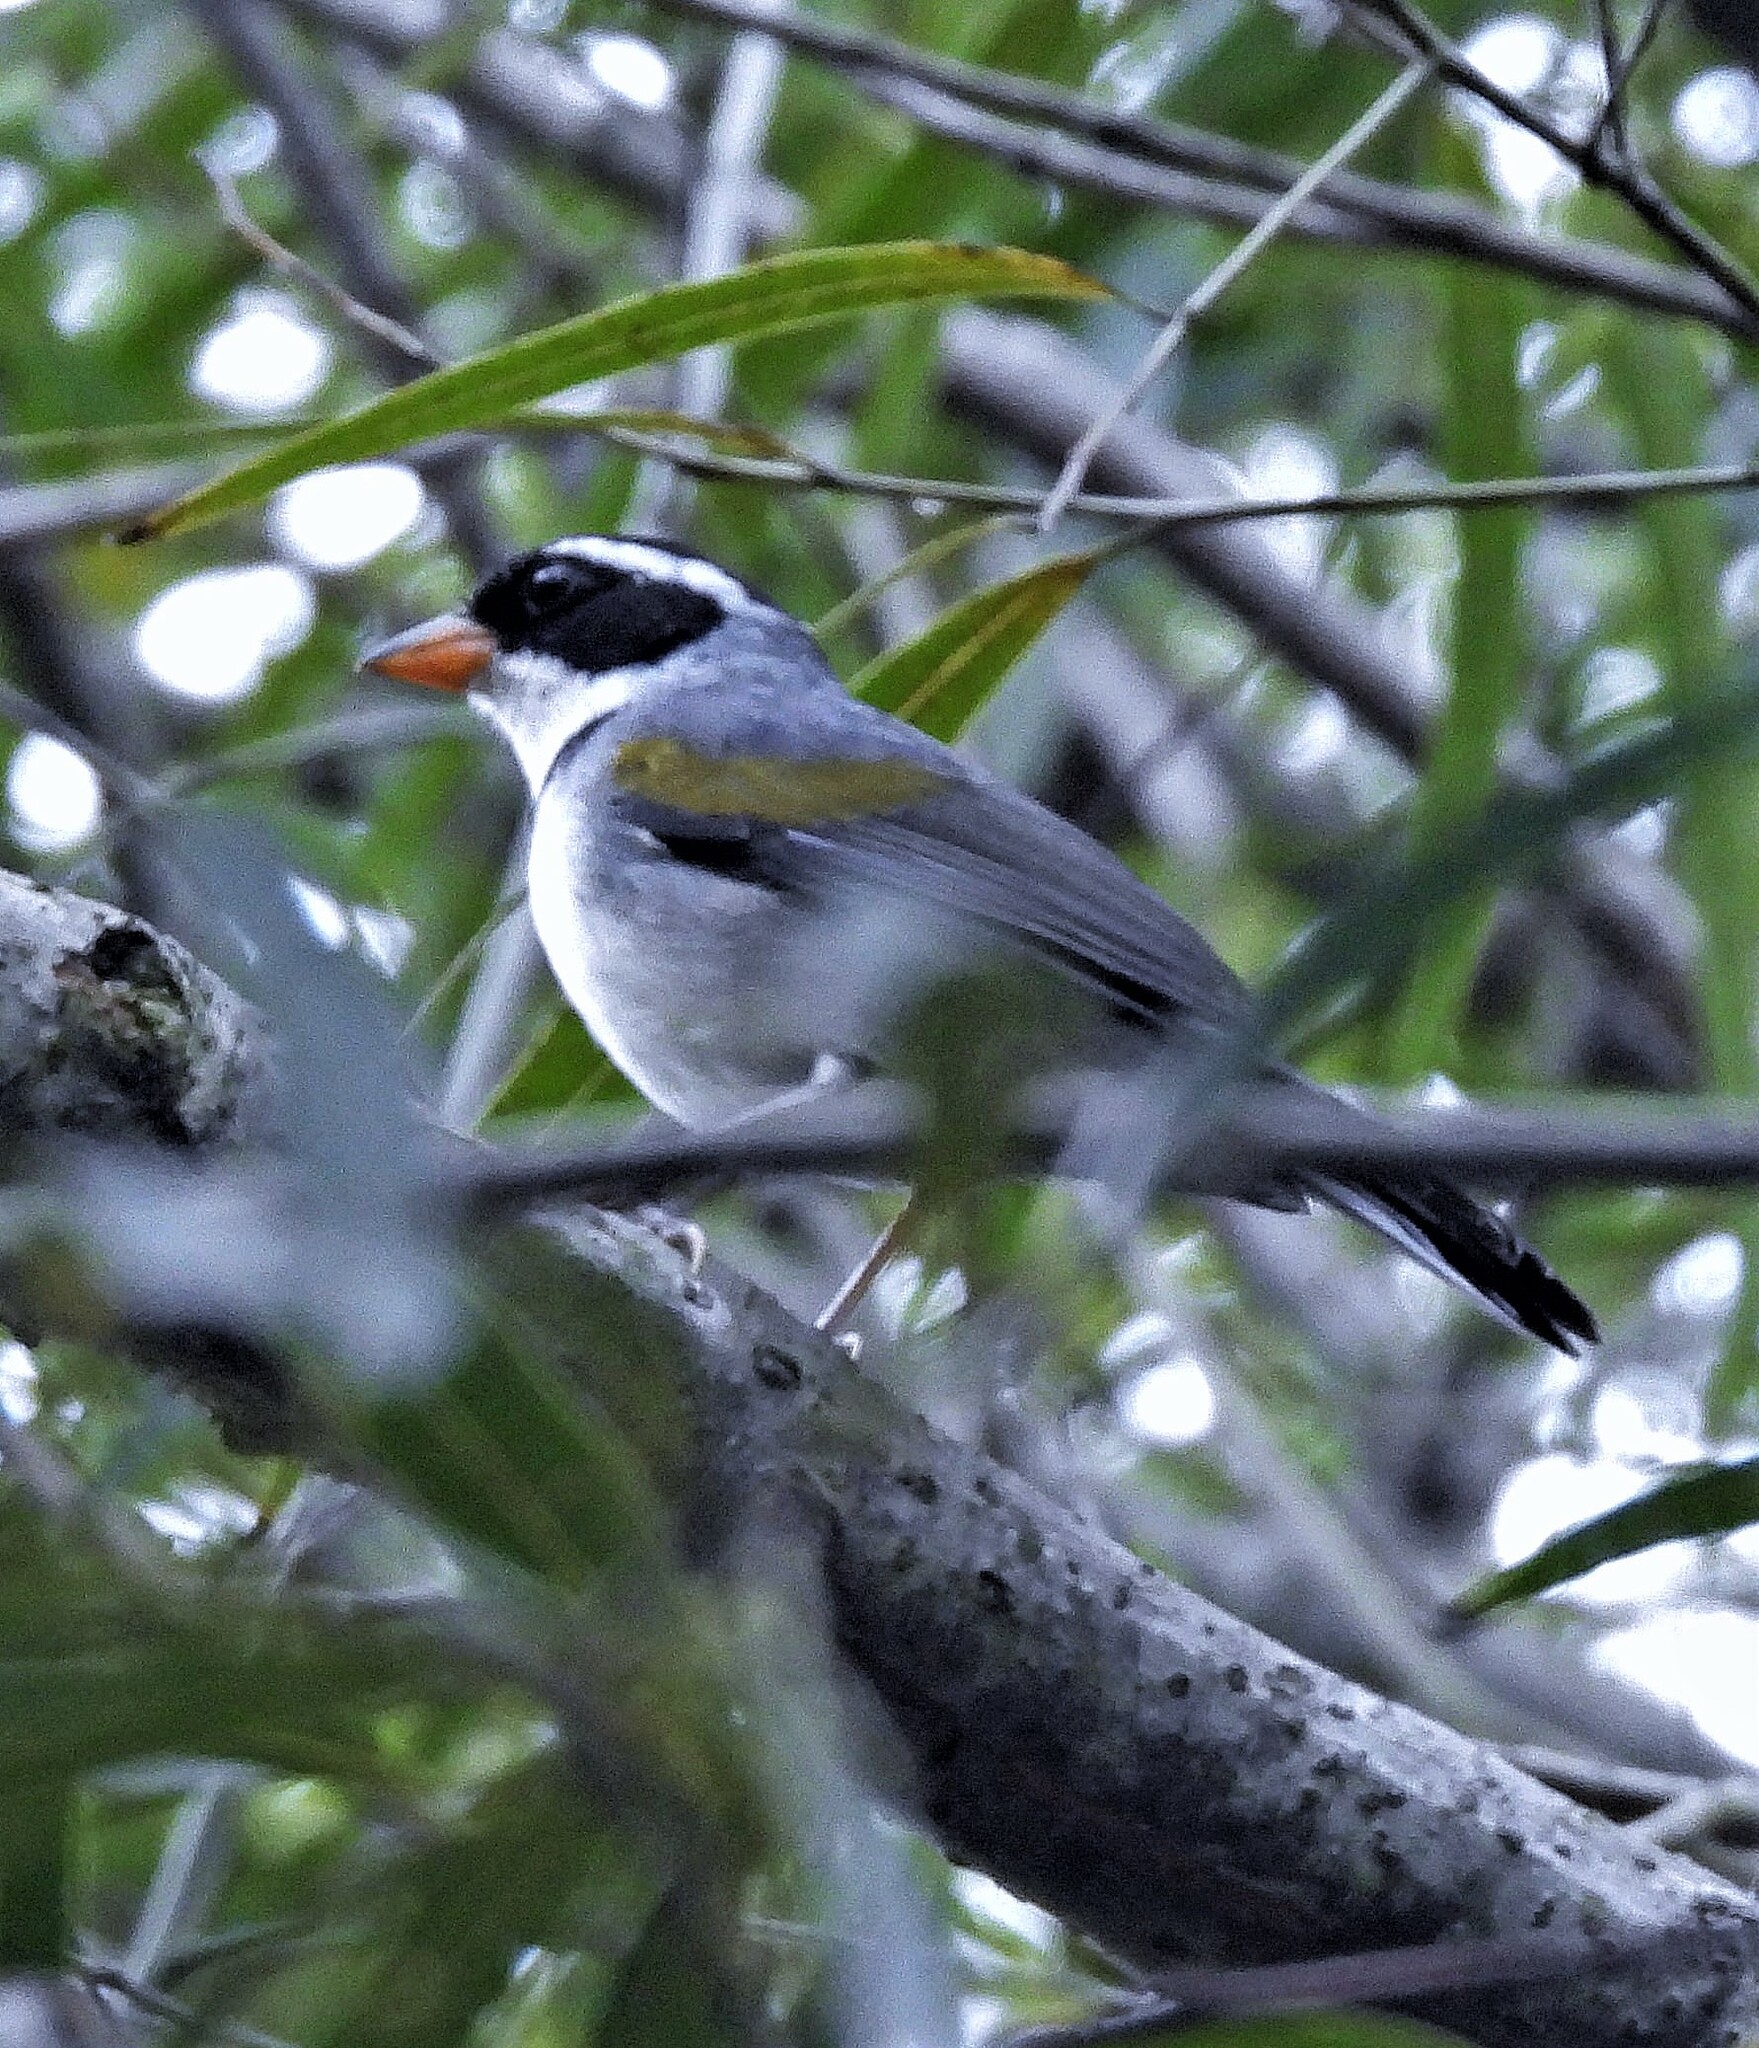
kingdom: Animalia
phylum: Chordata
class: Aves
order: Passeriformes
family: Passerellidae
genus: Arremon
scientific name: Arremon flavirostris
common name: Saffron-billed sparrow
